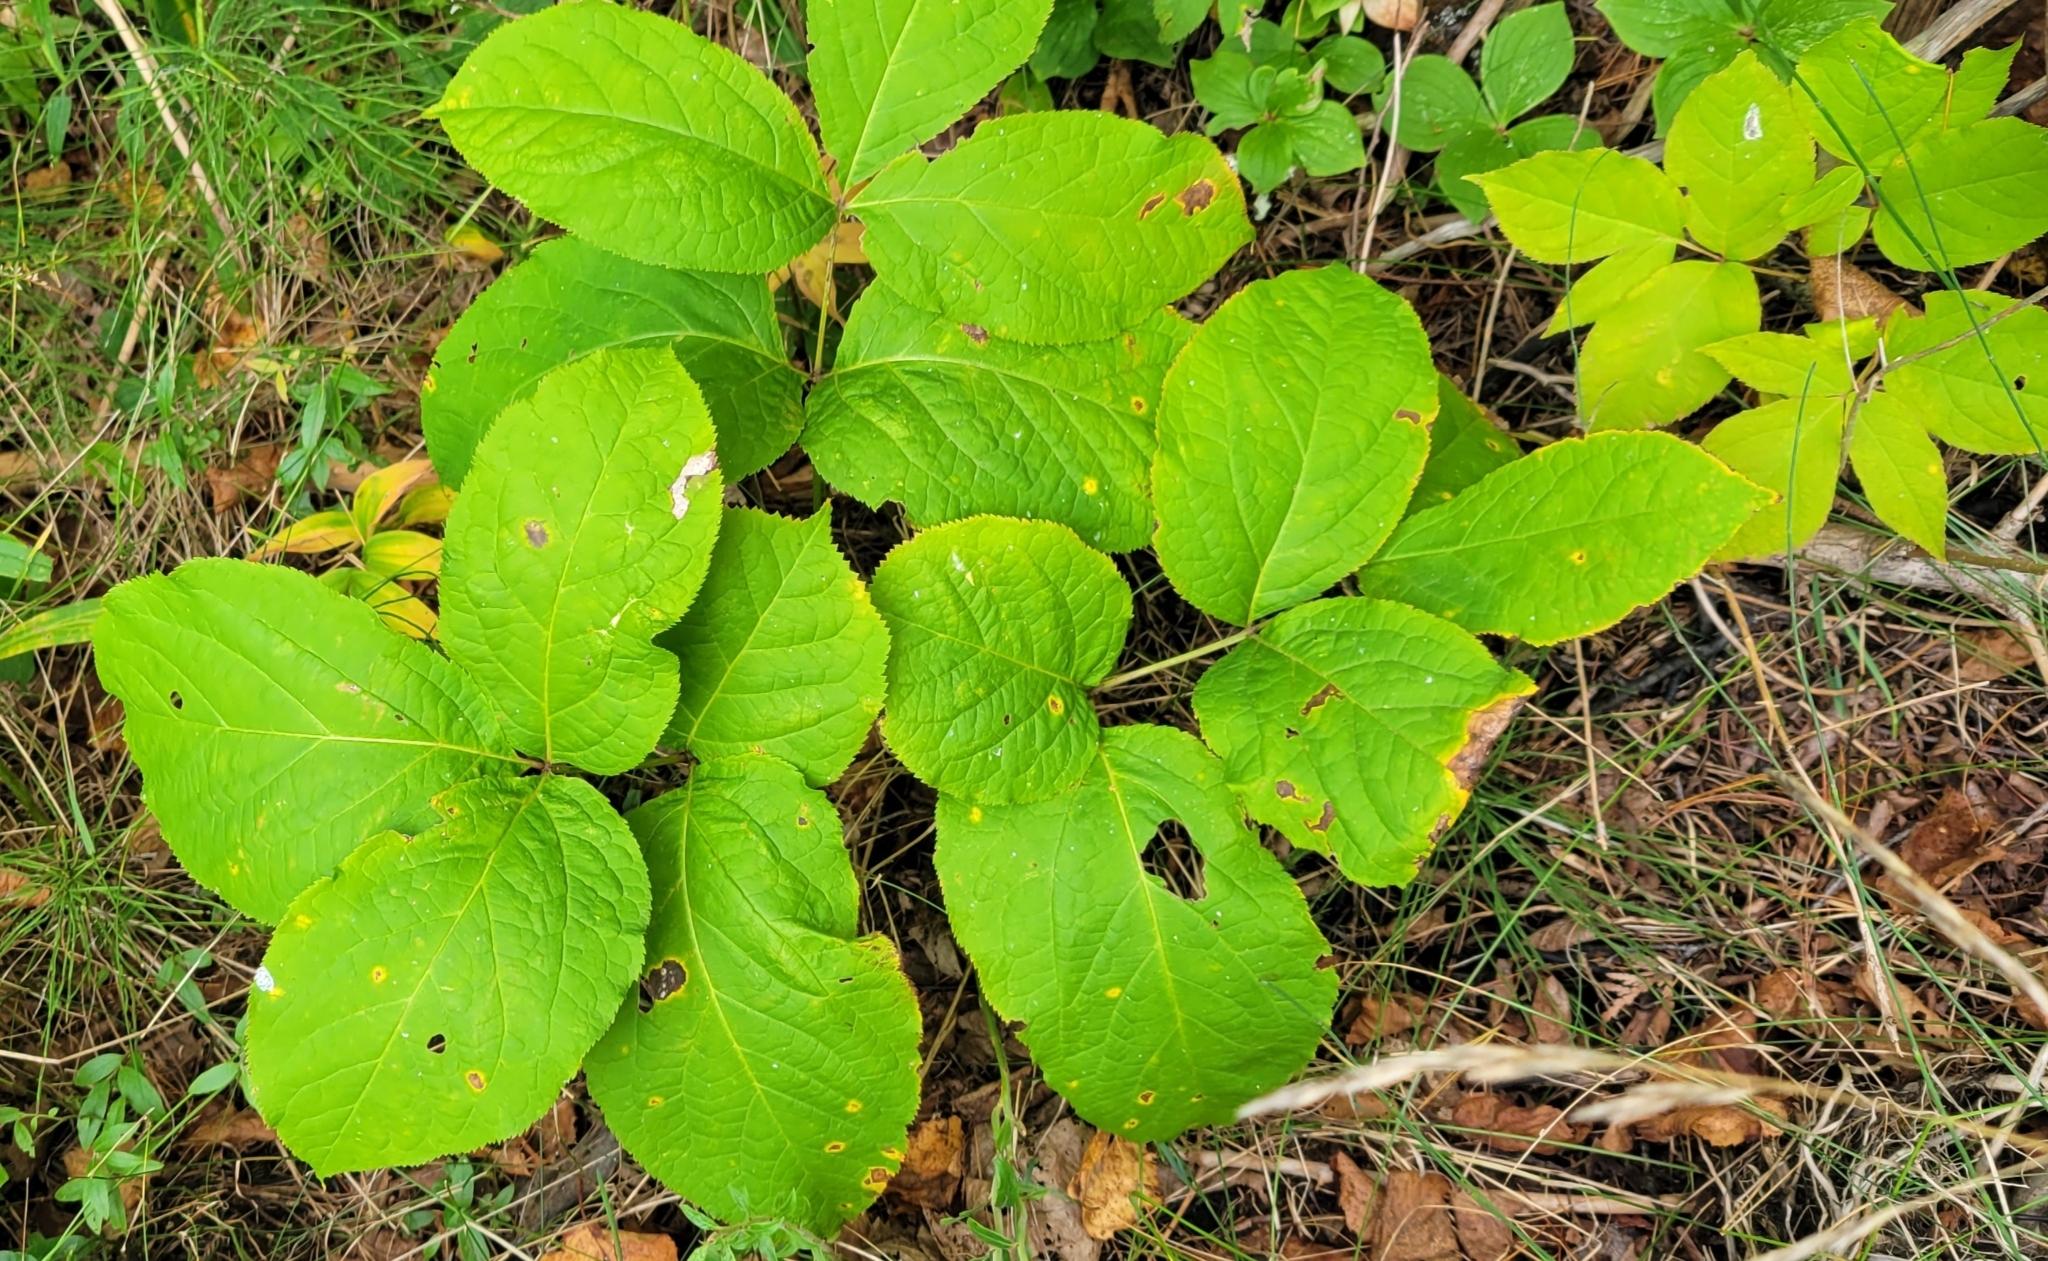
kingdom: Plantae
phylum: Tracheophyta
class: Magnoliopsida
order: Apiales
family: Araliaceae
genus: Aralia
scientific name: Aralia nudicaulis
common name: Wild sarsaparilla
